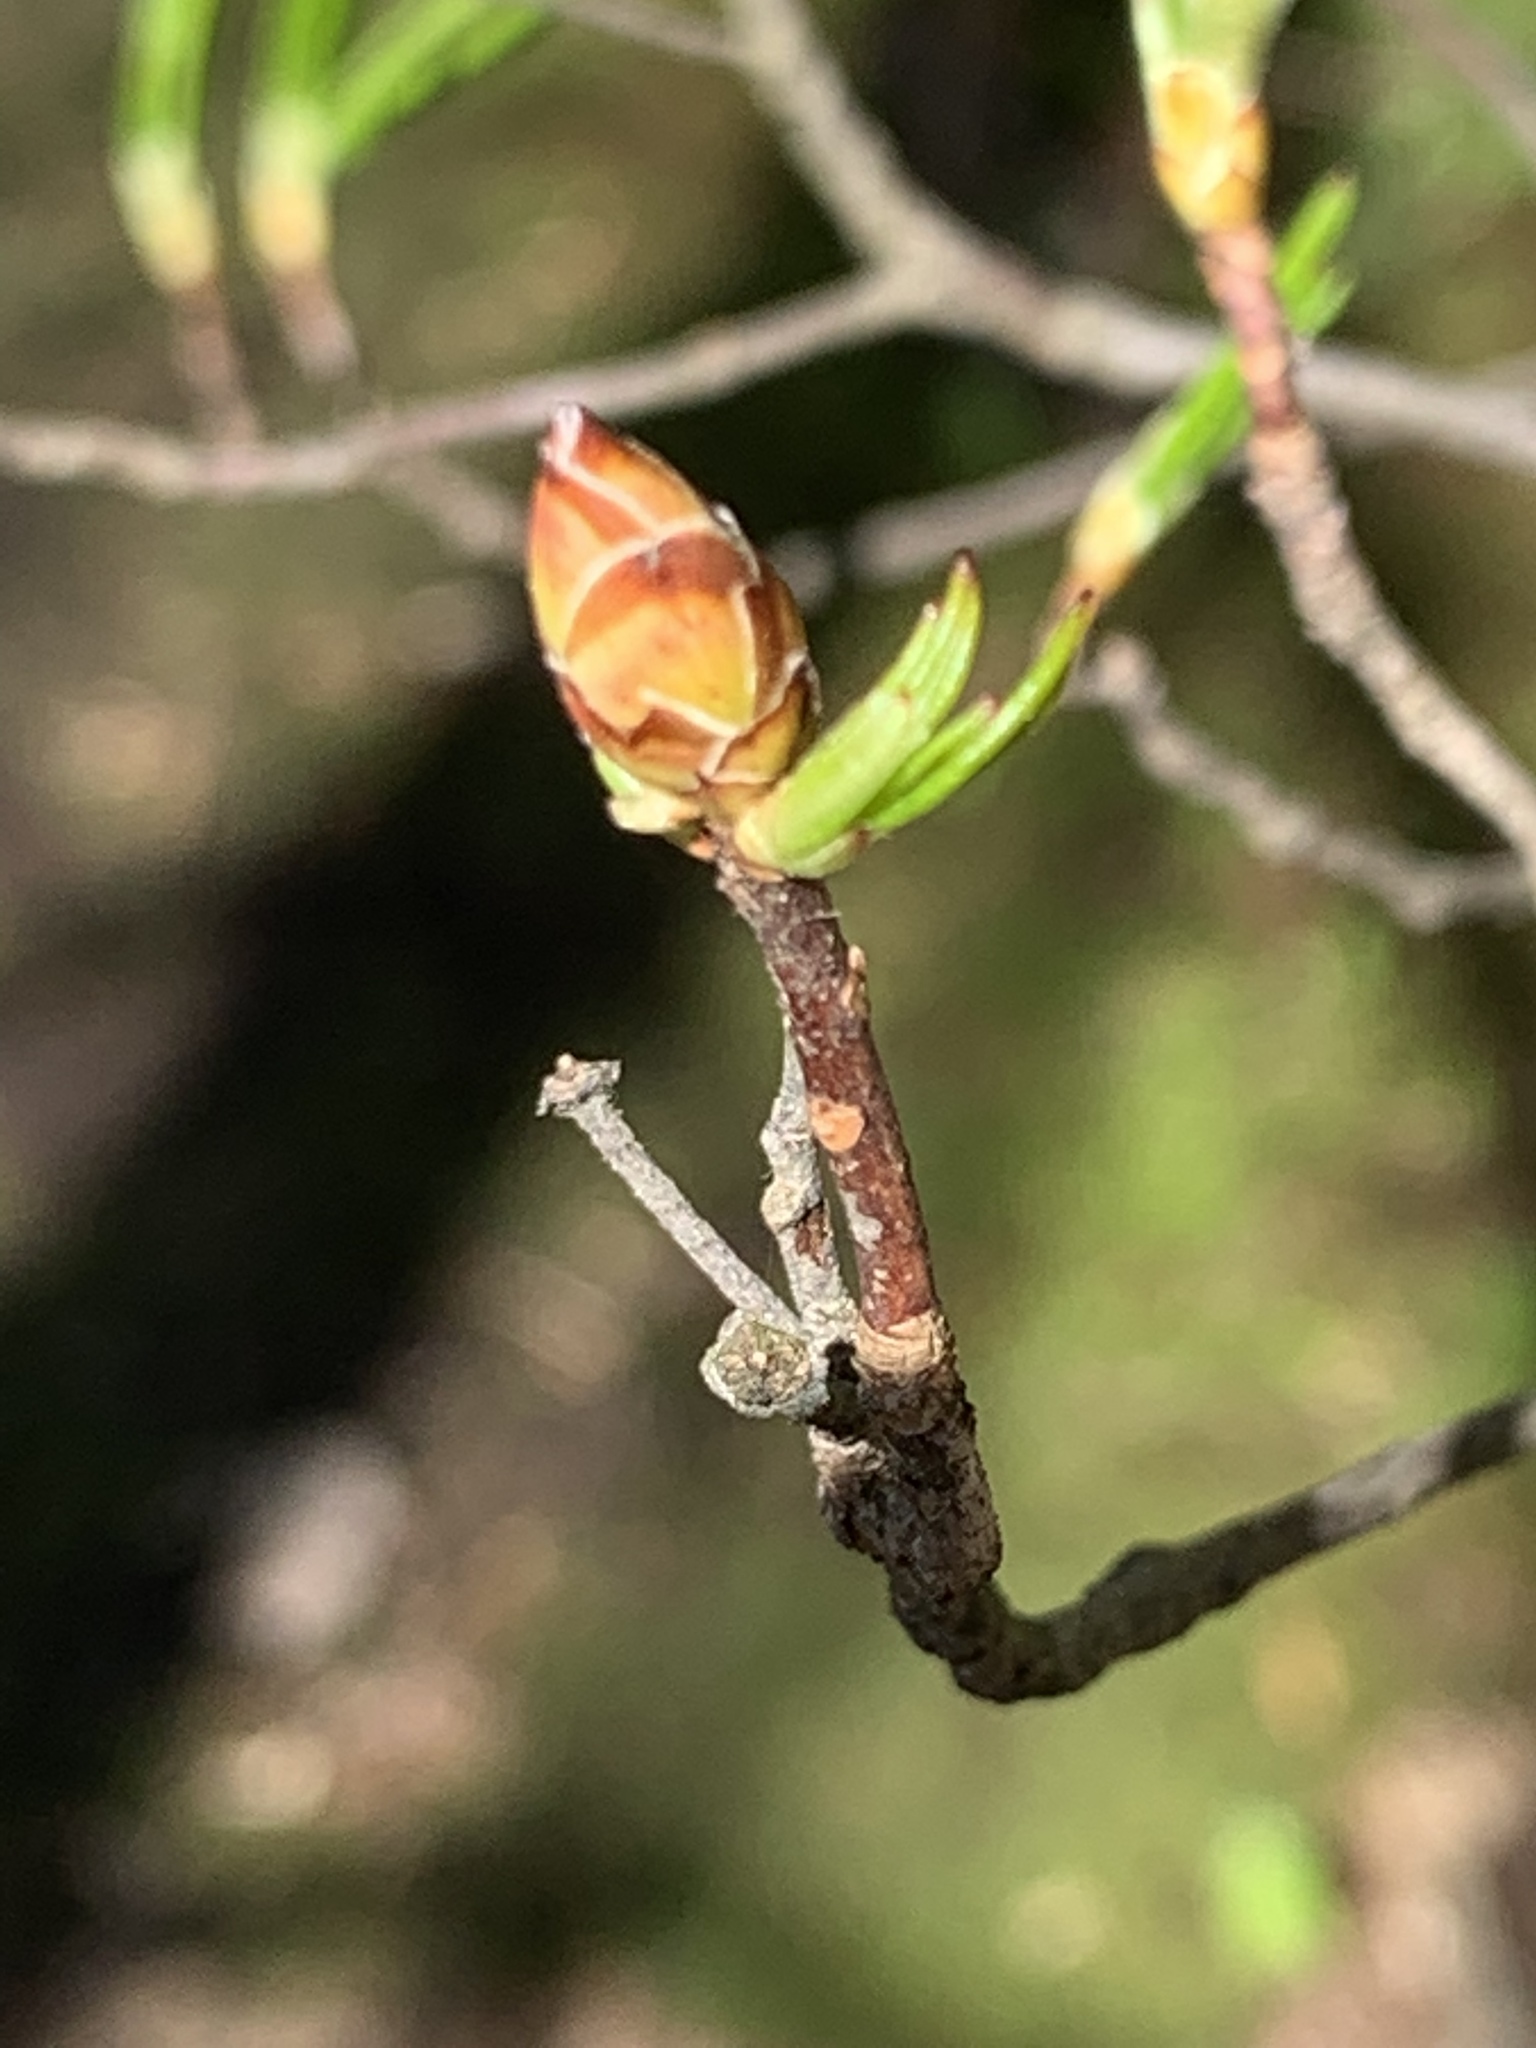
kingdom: Plantae
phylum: Tracheophyta
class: Magnoliopsida
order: Ericales
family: Ericaceae
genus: Rhododendron
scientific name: Rhododendron viscosum
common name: Clammy azalea
